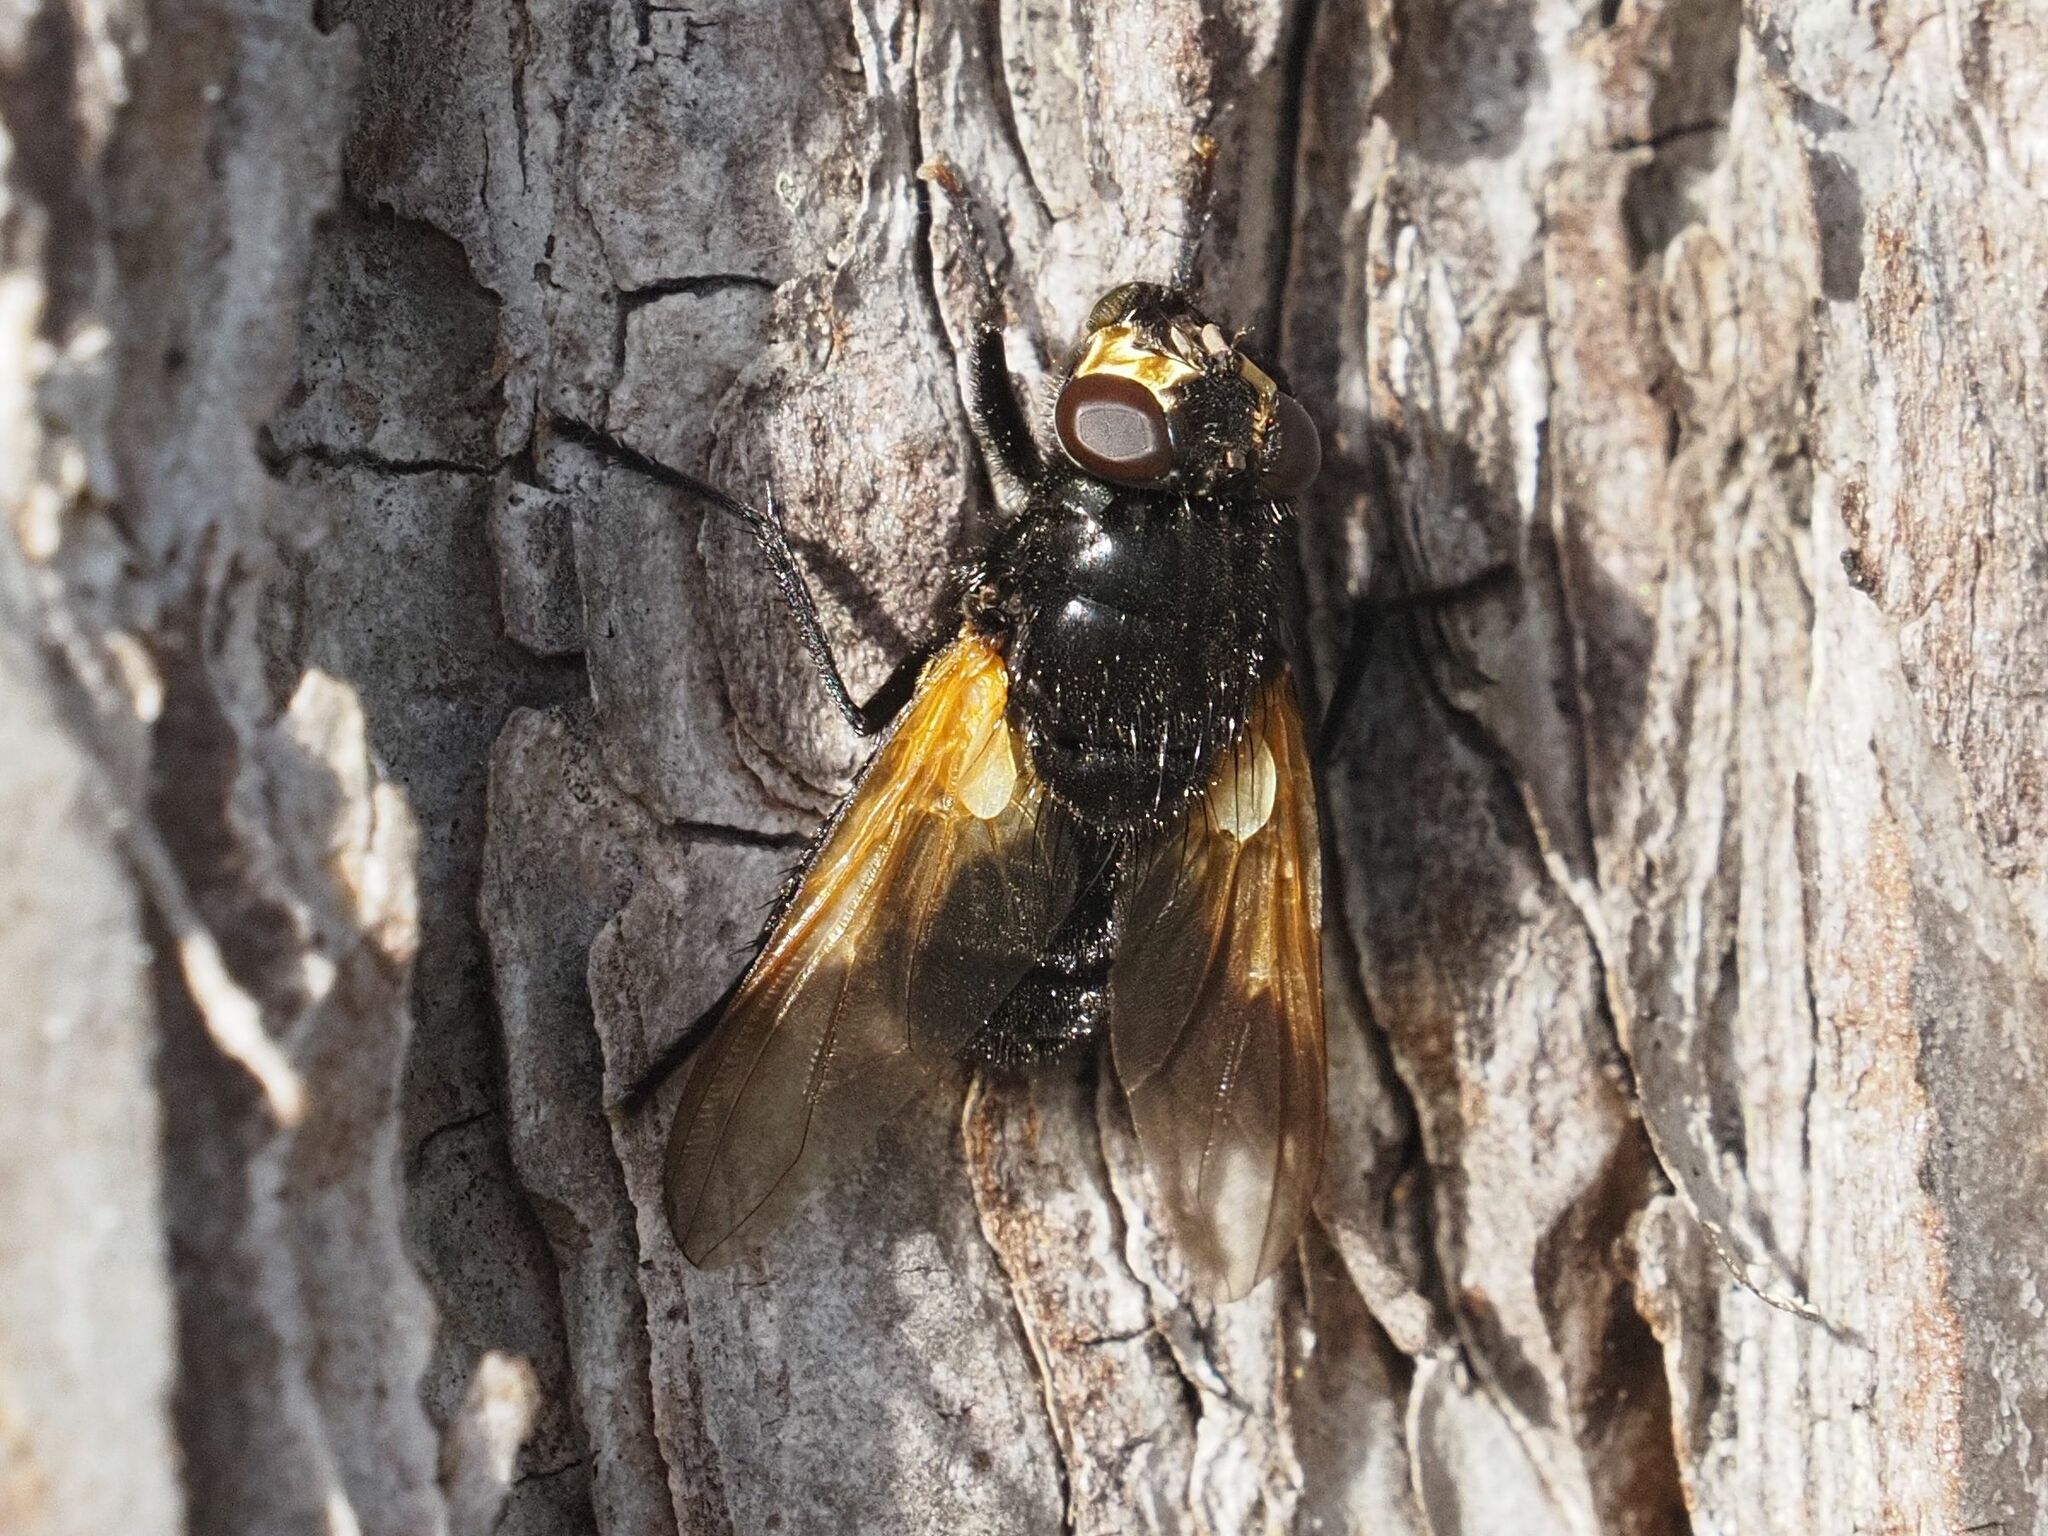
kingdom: Animalia
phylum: Arthropoda
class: Insecta
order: Diptera
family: Muscidae
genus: Mesembrina
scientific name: Mesembrina meridiana
